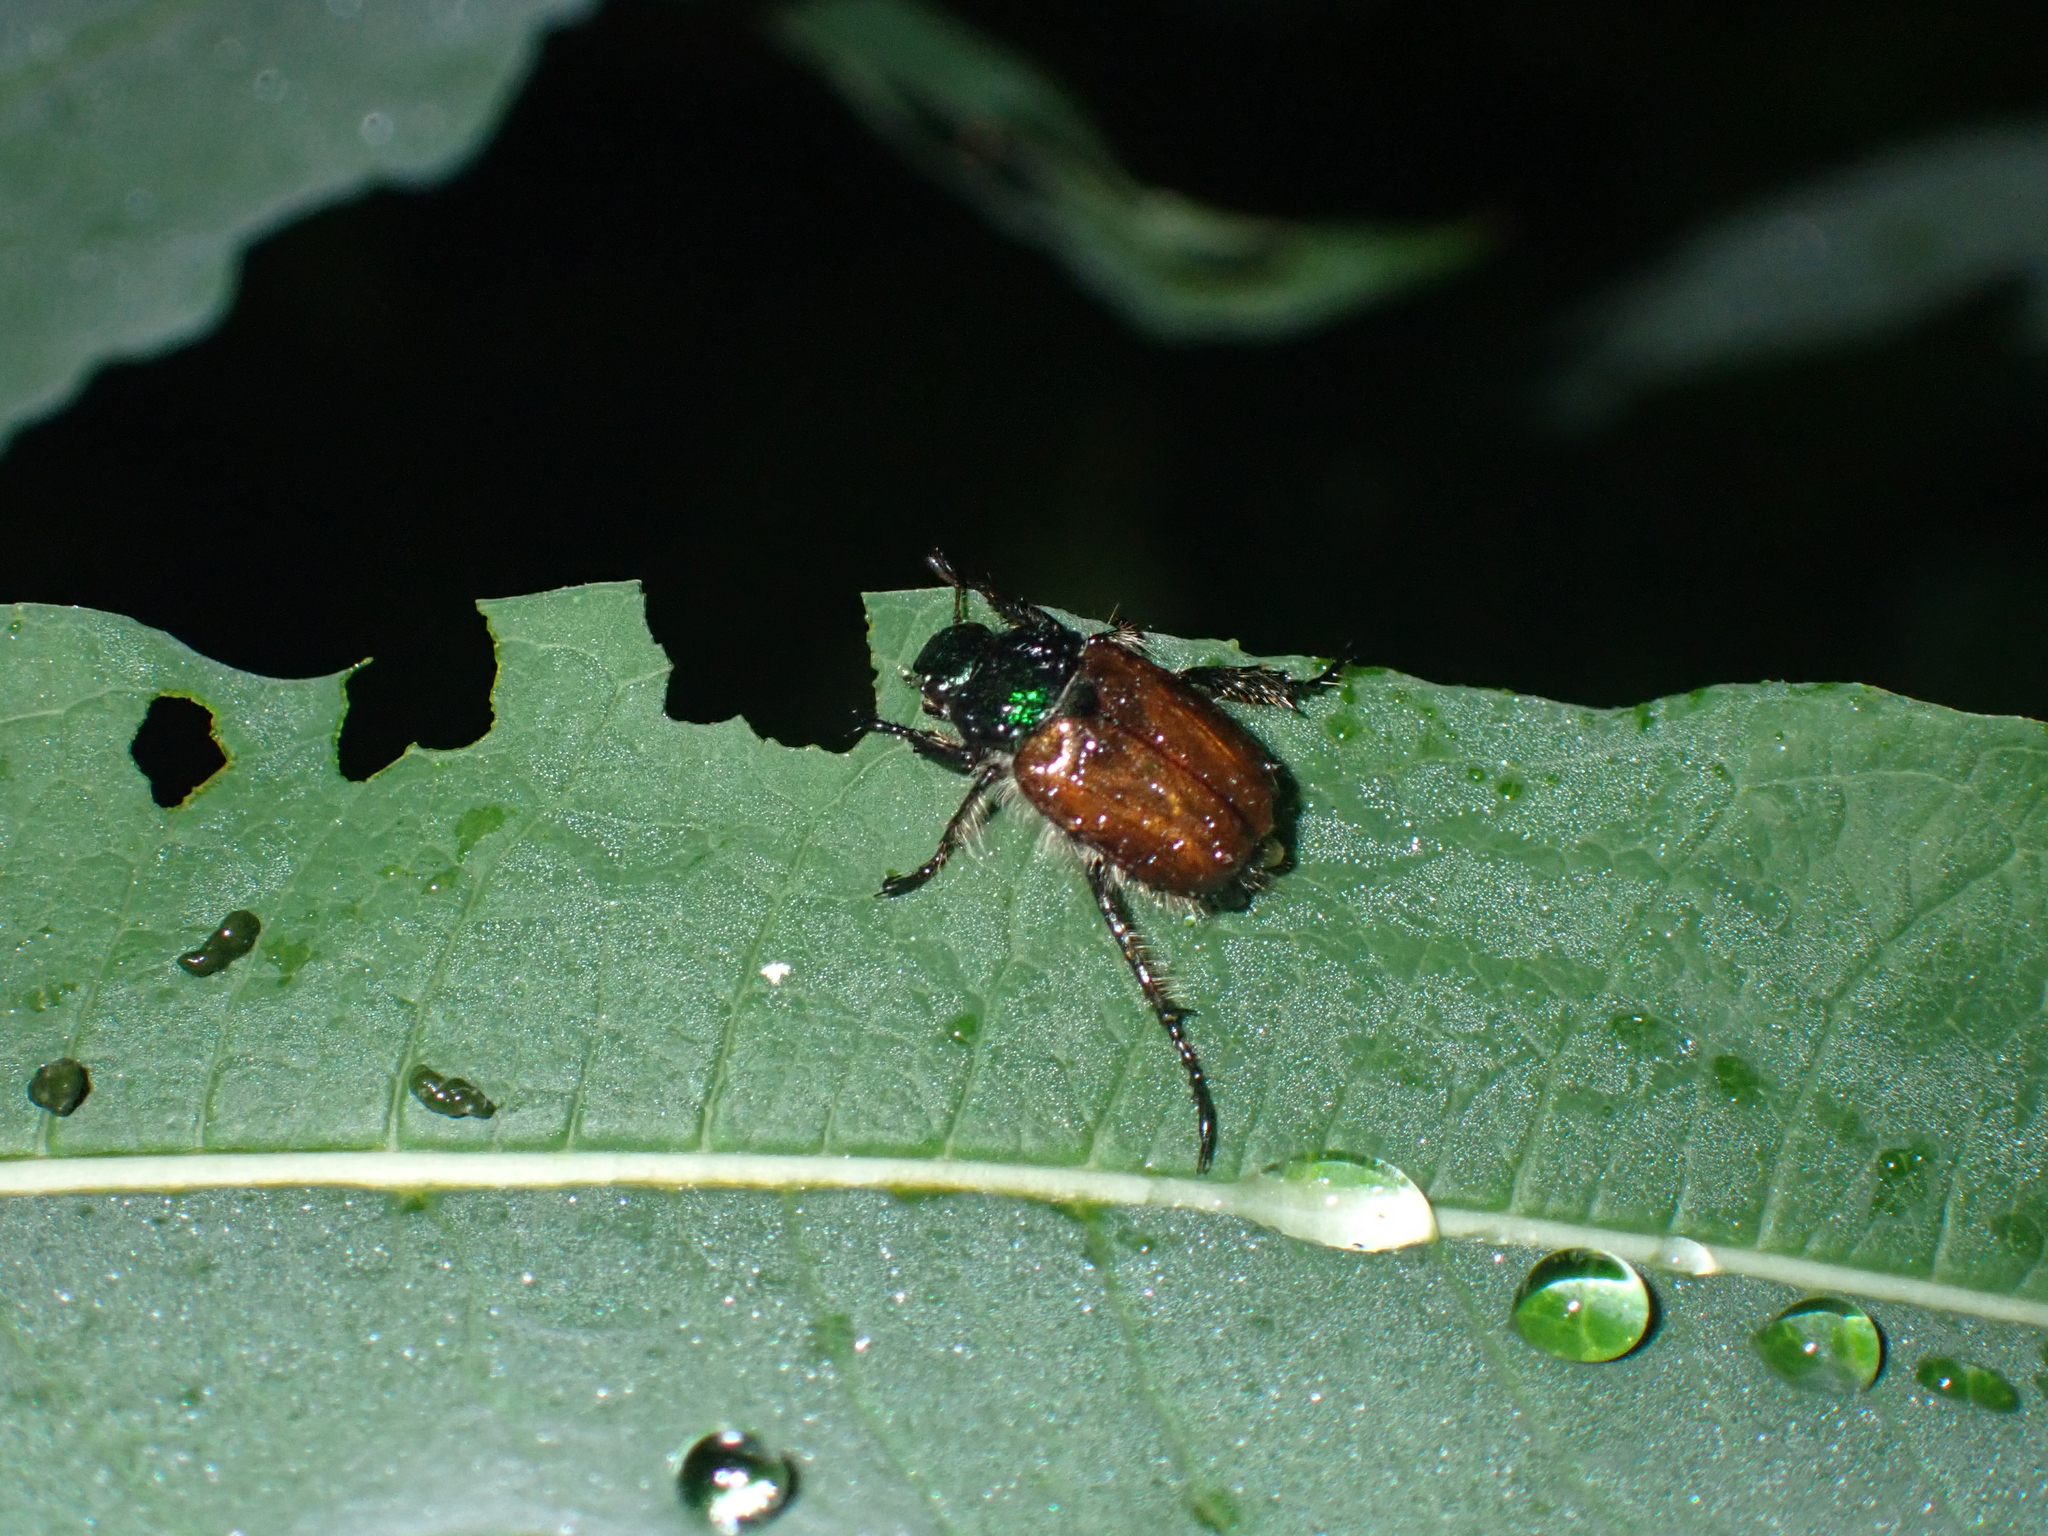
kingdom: Animalia
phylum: Arthropoda
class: Insecta
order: Coleoptera
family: Scarabaeidae
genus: Phyllopertha
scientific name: Phyllopertha horticola
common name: Garden chafer
